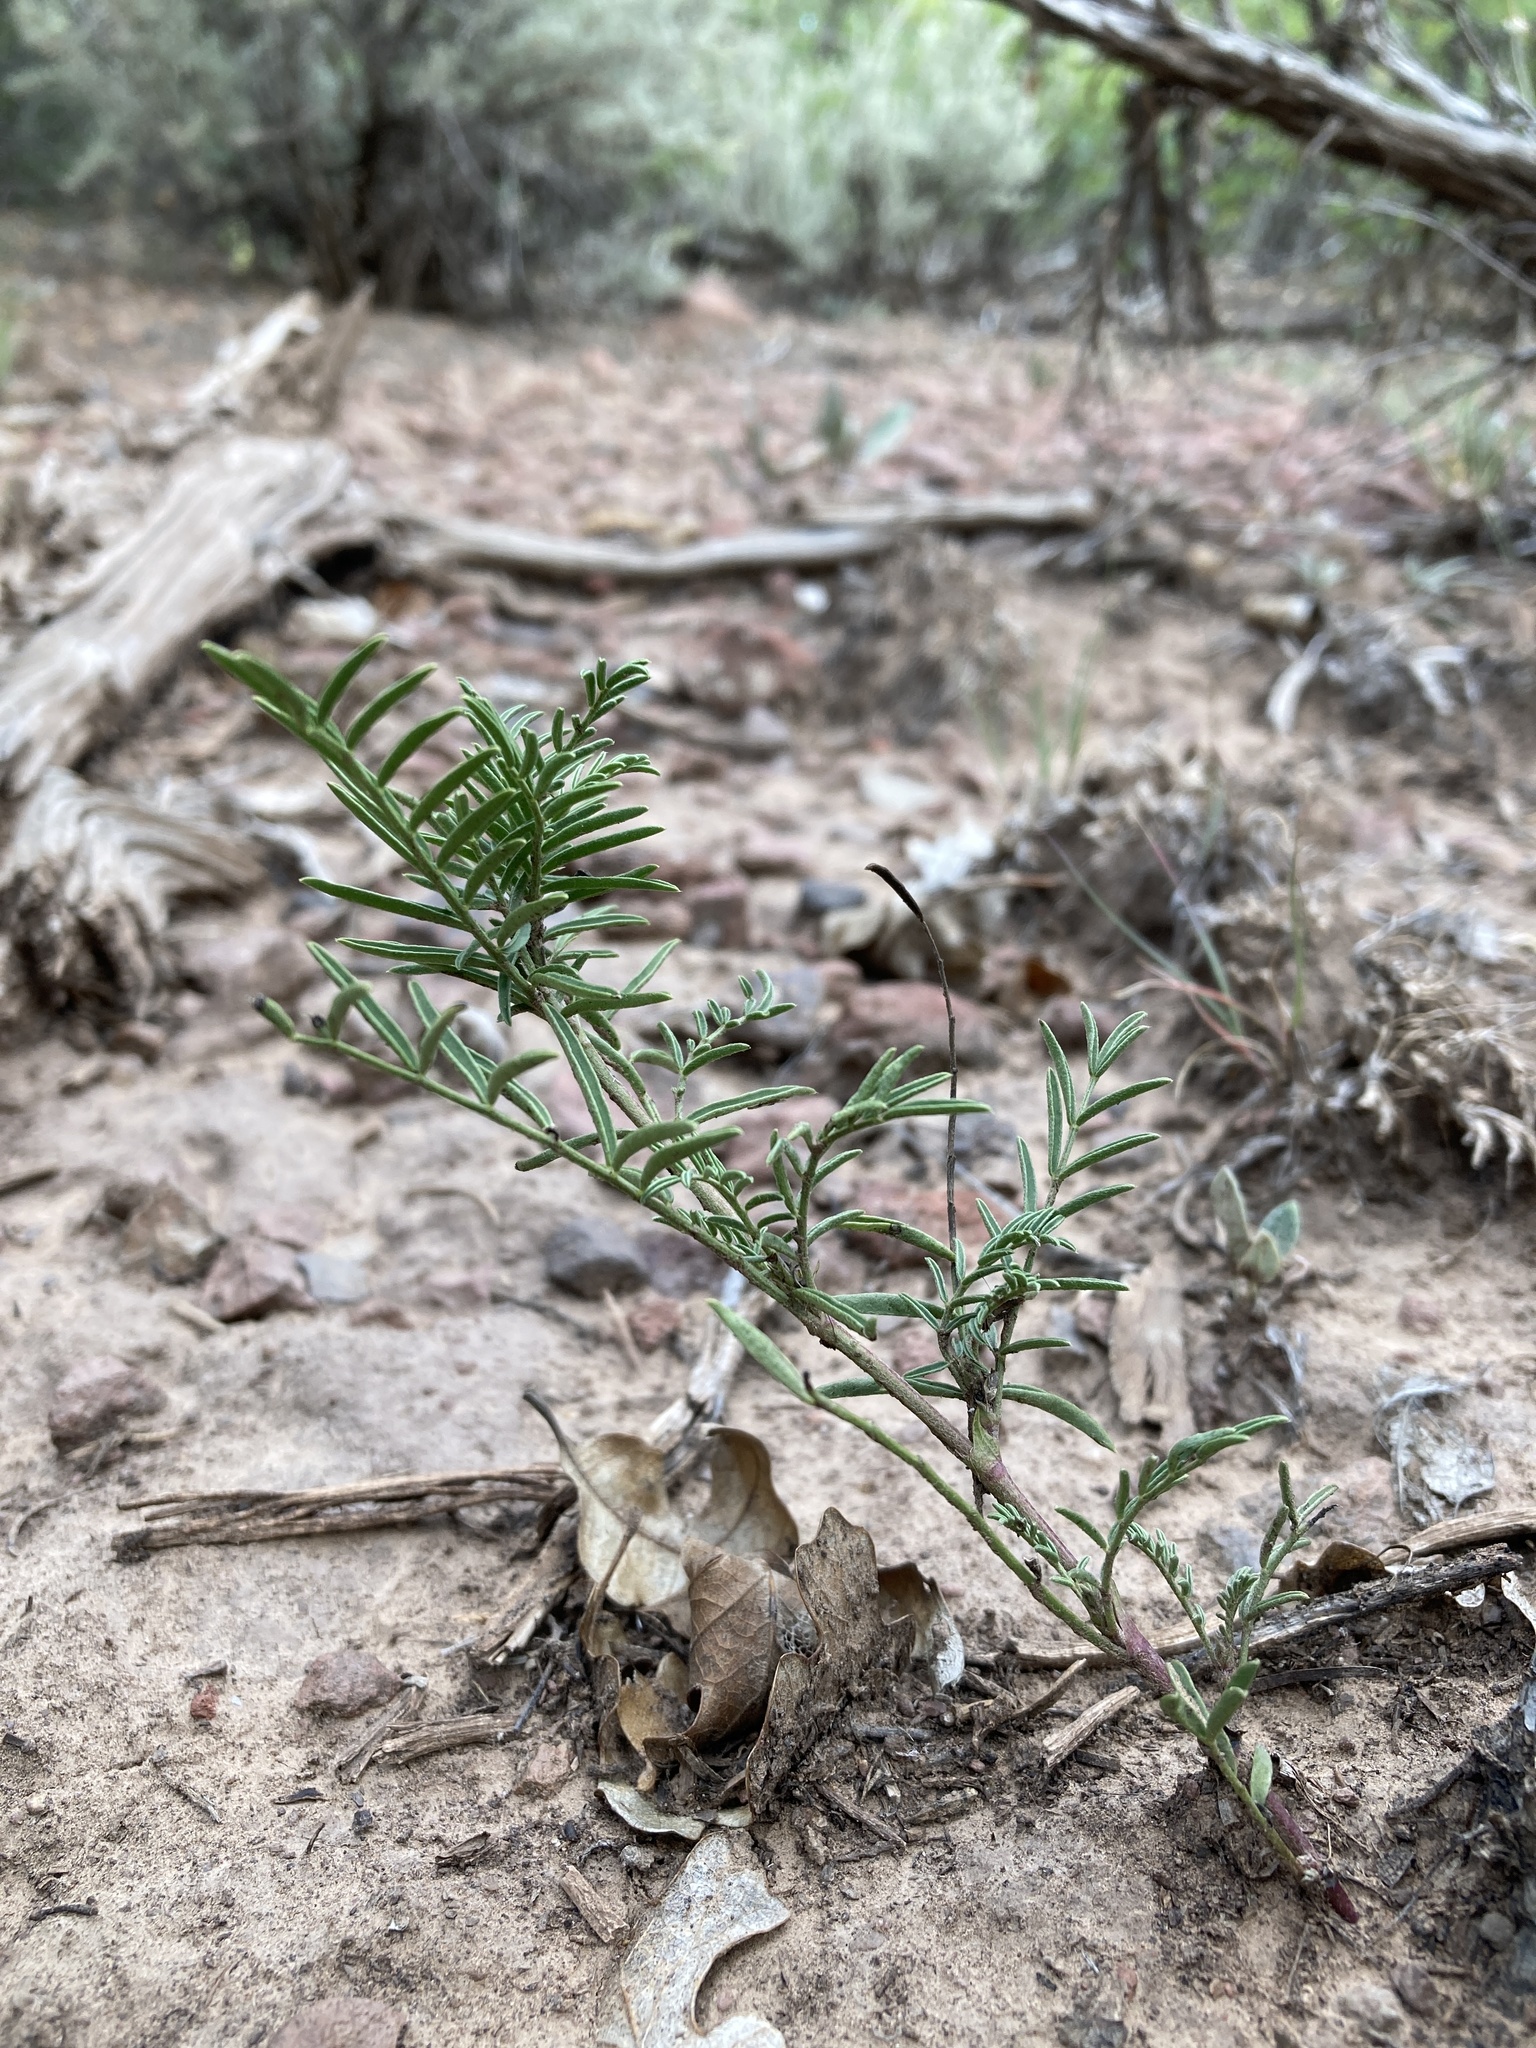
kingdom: Plantae
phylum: Tracheophyta
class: Magnoliopsida
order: Fabales
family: Fabaceae
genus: Astragalus
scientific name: Astragalus tenellus
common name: Pulse milk-vetch
